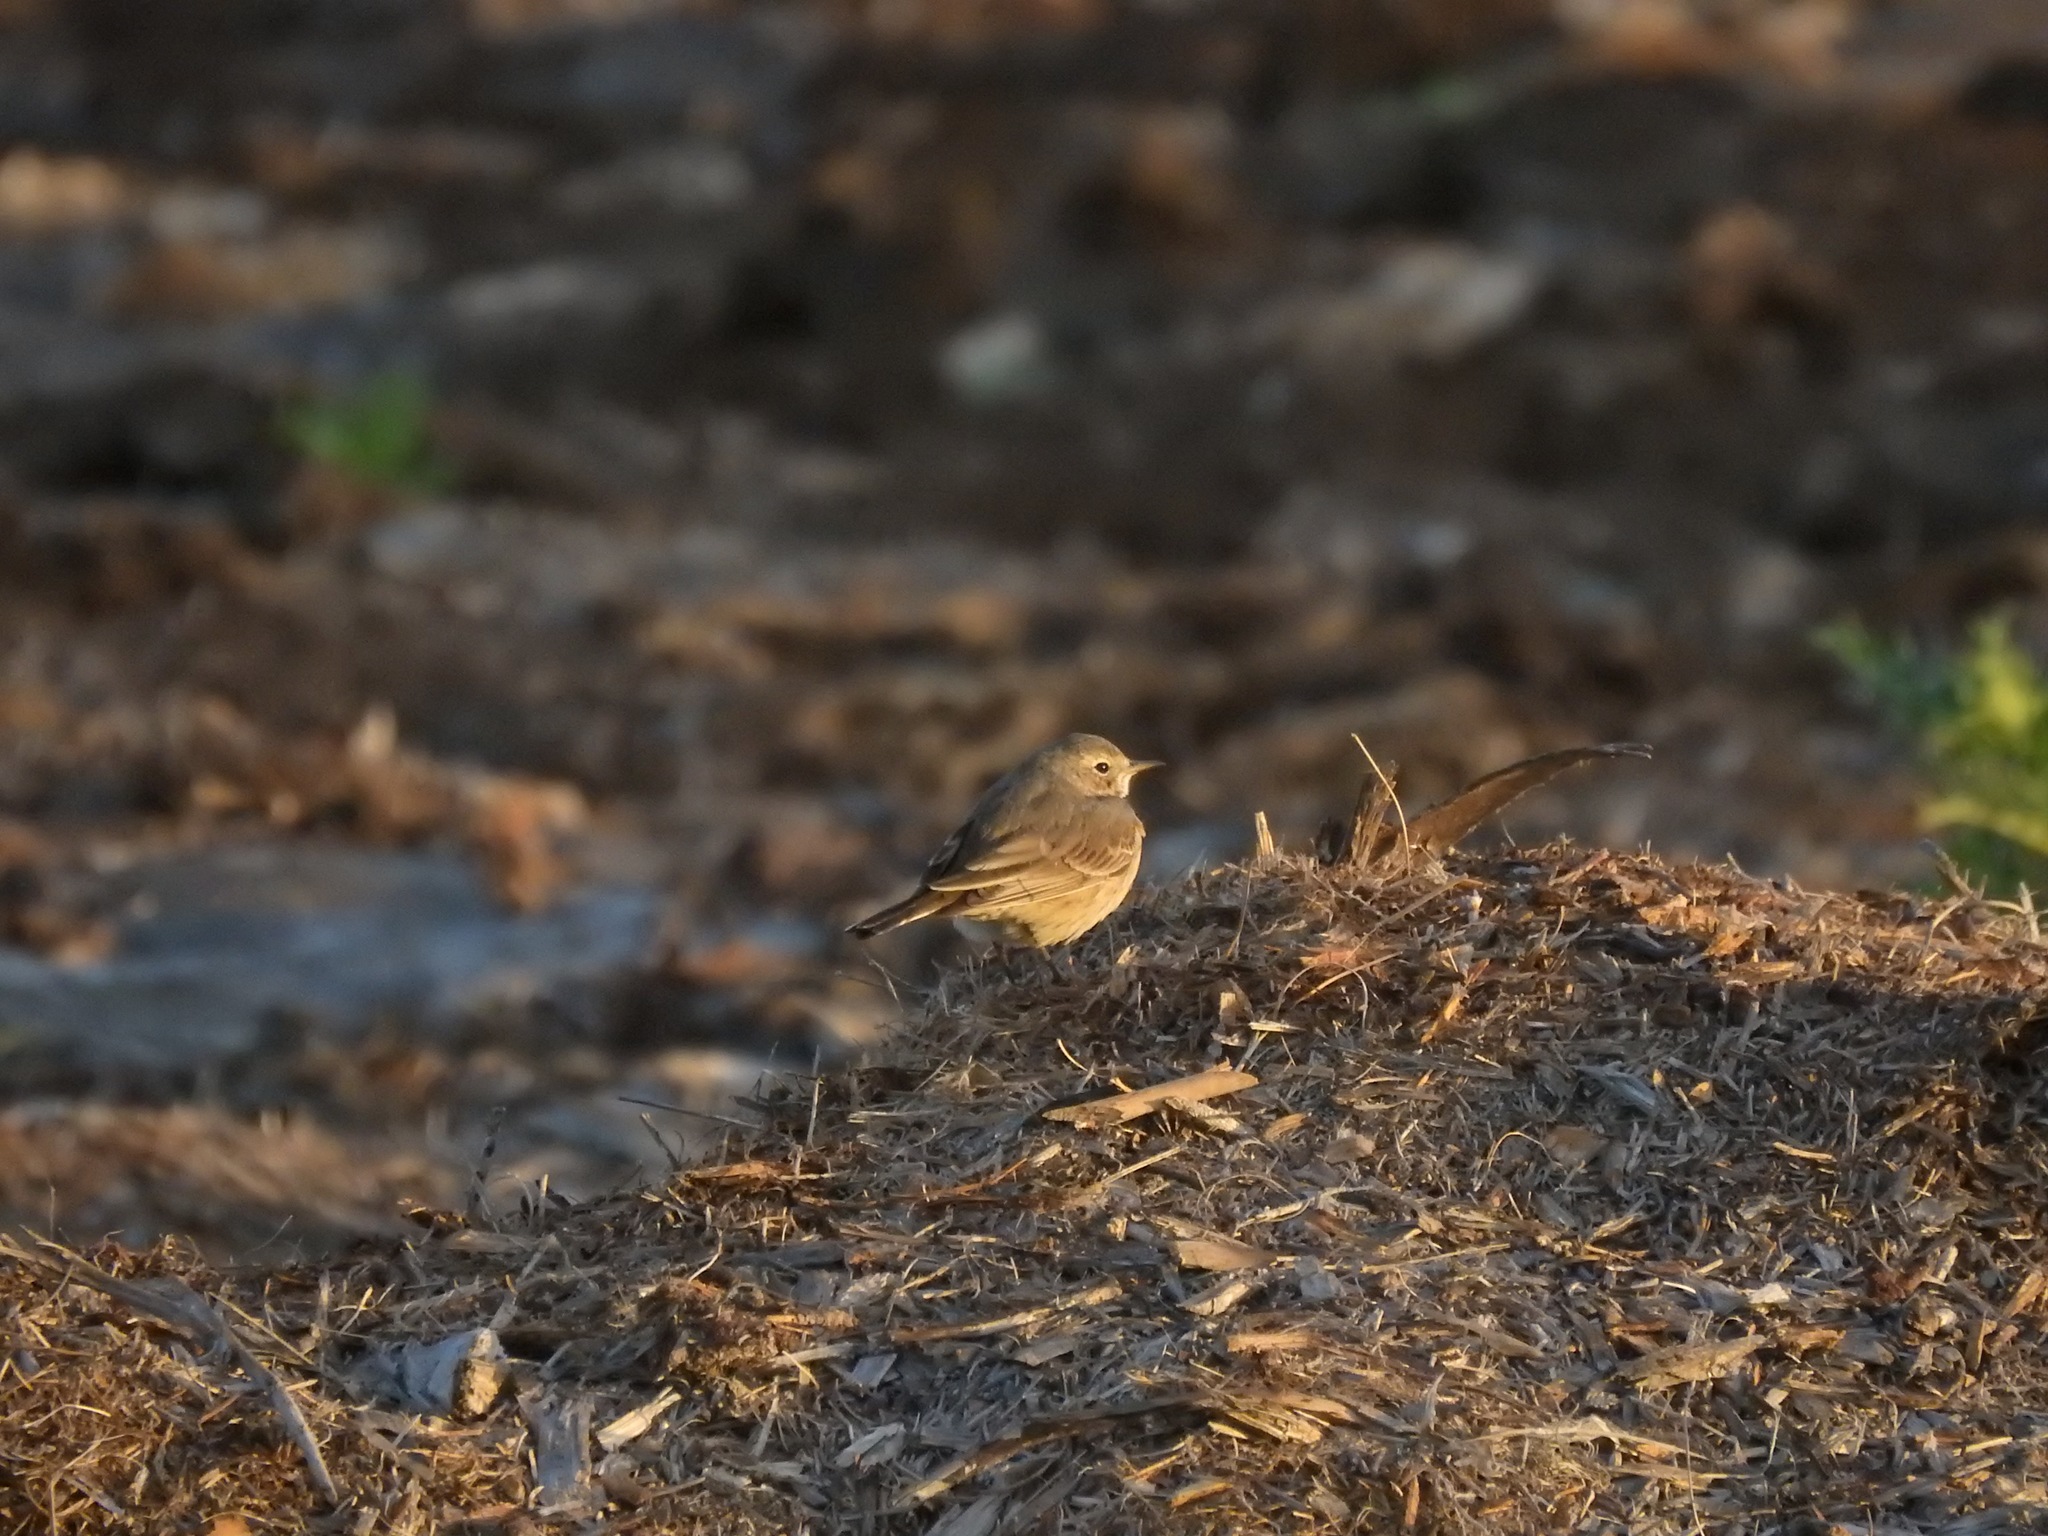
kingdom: Animalia
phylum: Chordata
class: Aves
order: Passeriformes
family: Motacillidae
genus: Anthus
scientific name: Anthus rubescens
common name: Buff-bellied pipit
